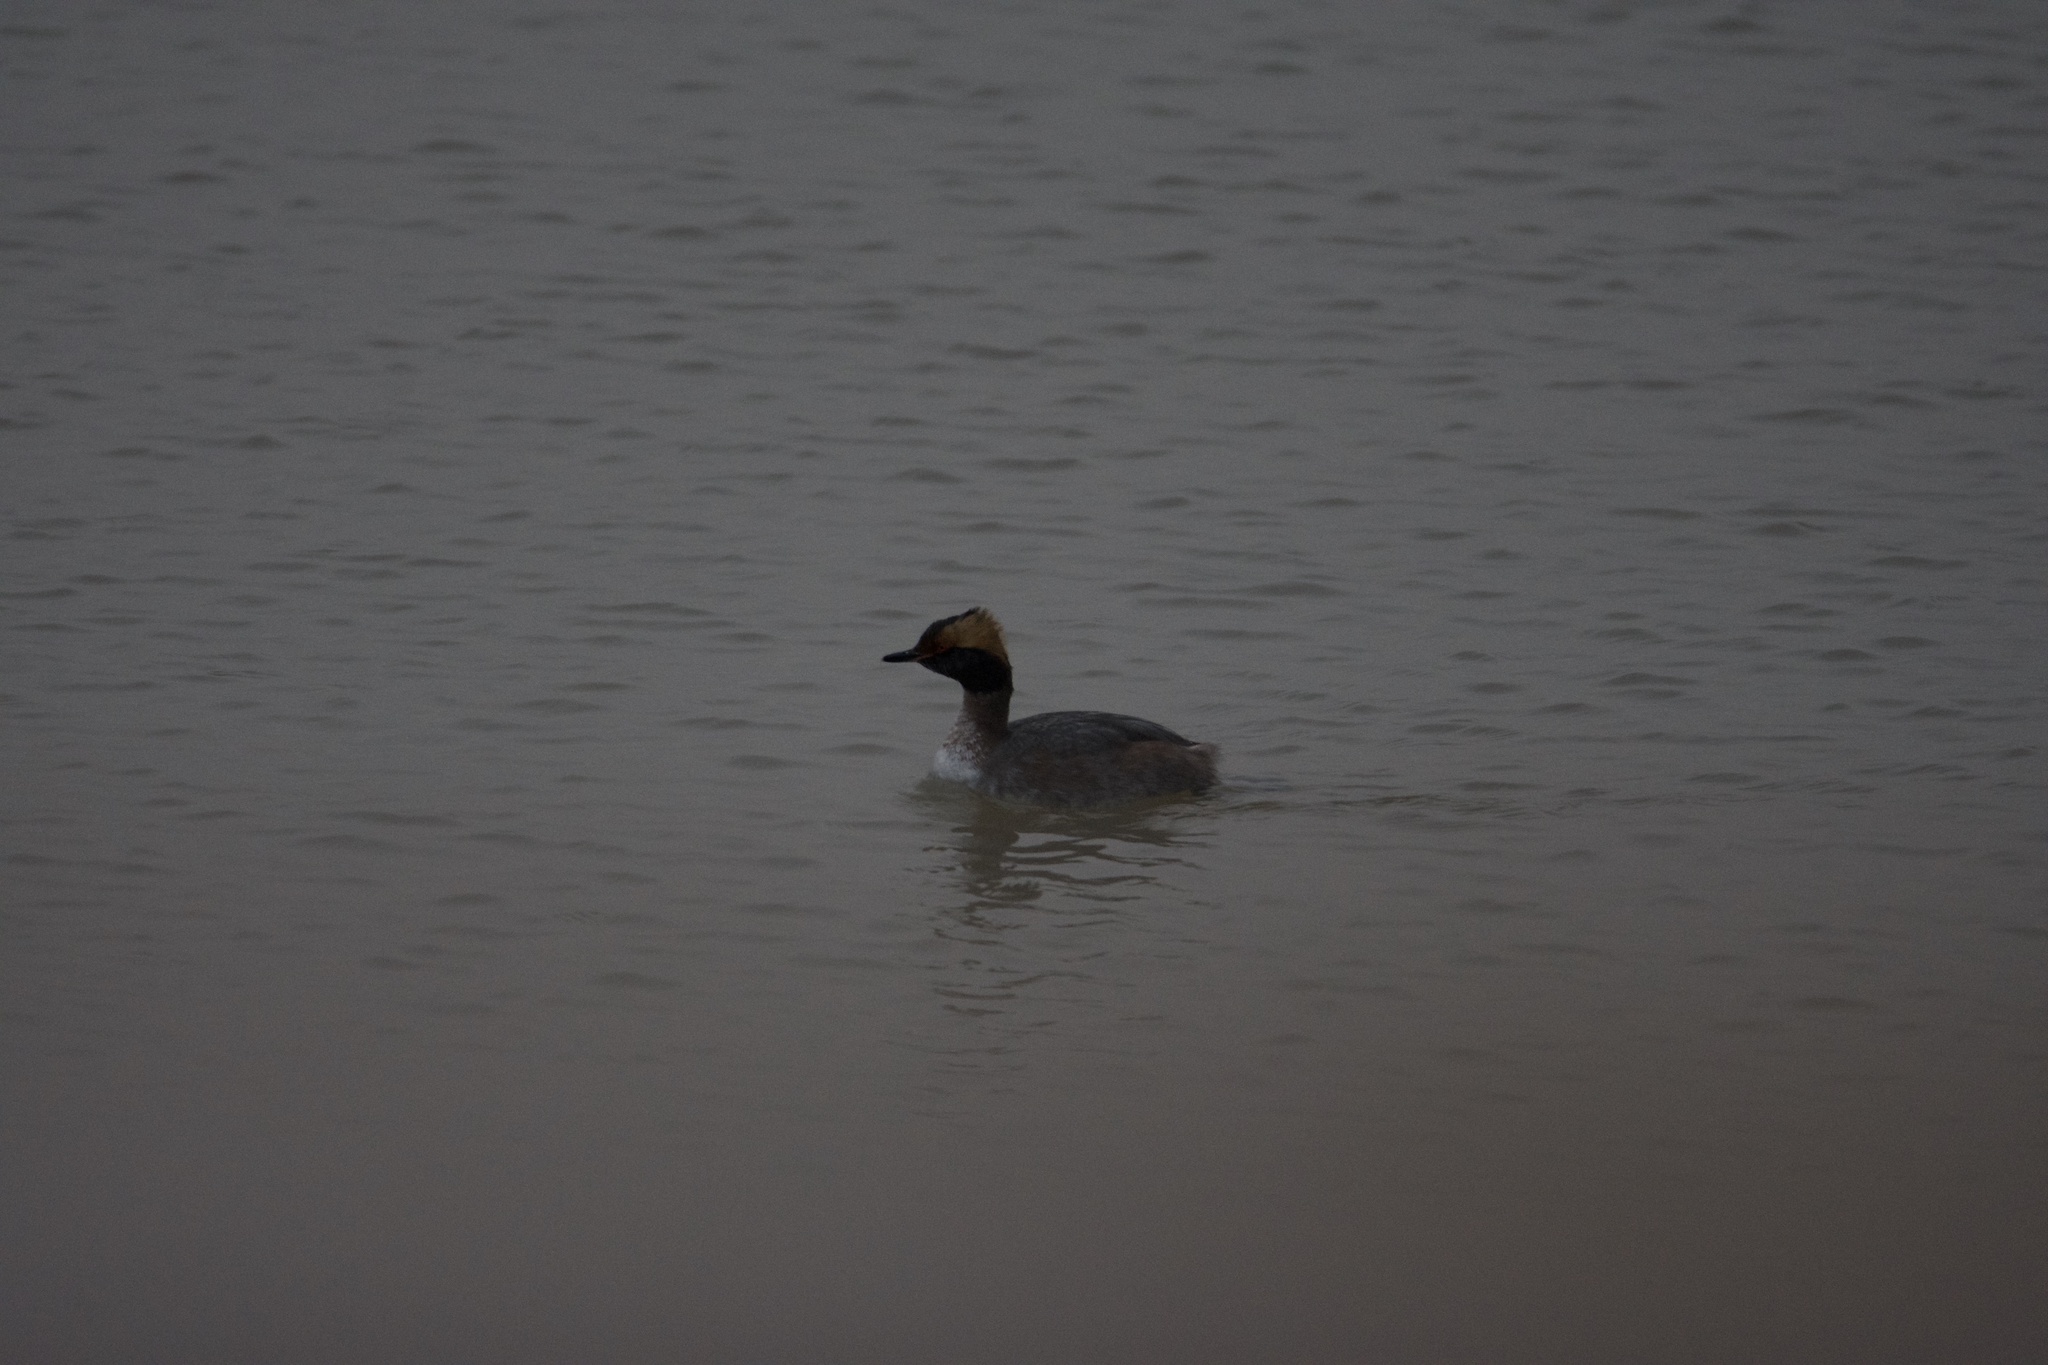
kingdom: Animalia
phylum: Chordata
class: Aves
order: Podicipediformes
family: Podicipedidae
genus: Podiceps
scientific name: Podiceps auritus
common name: Horned grebe
